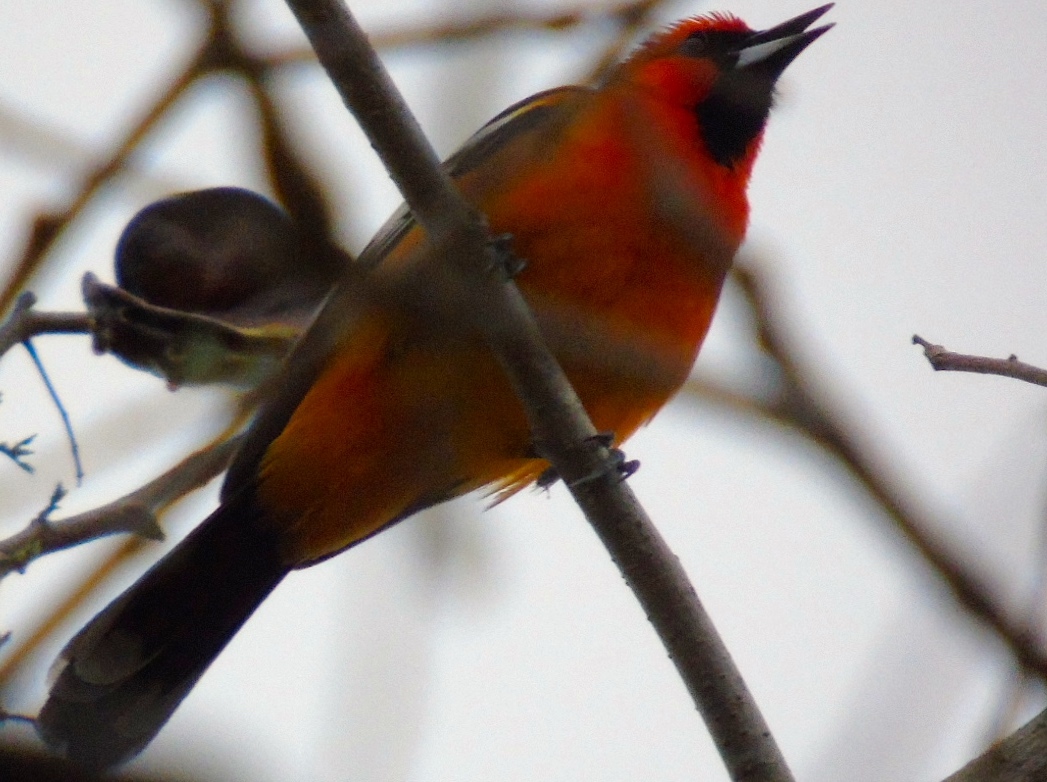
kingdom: Animalia
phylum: Chordata
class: Aves
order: Passeriformes
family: Icteridae
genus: Icterus
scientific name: Icterus pustulatus
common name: Streak-backed oriole
